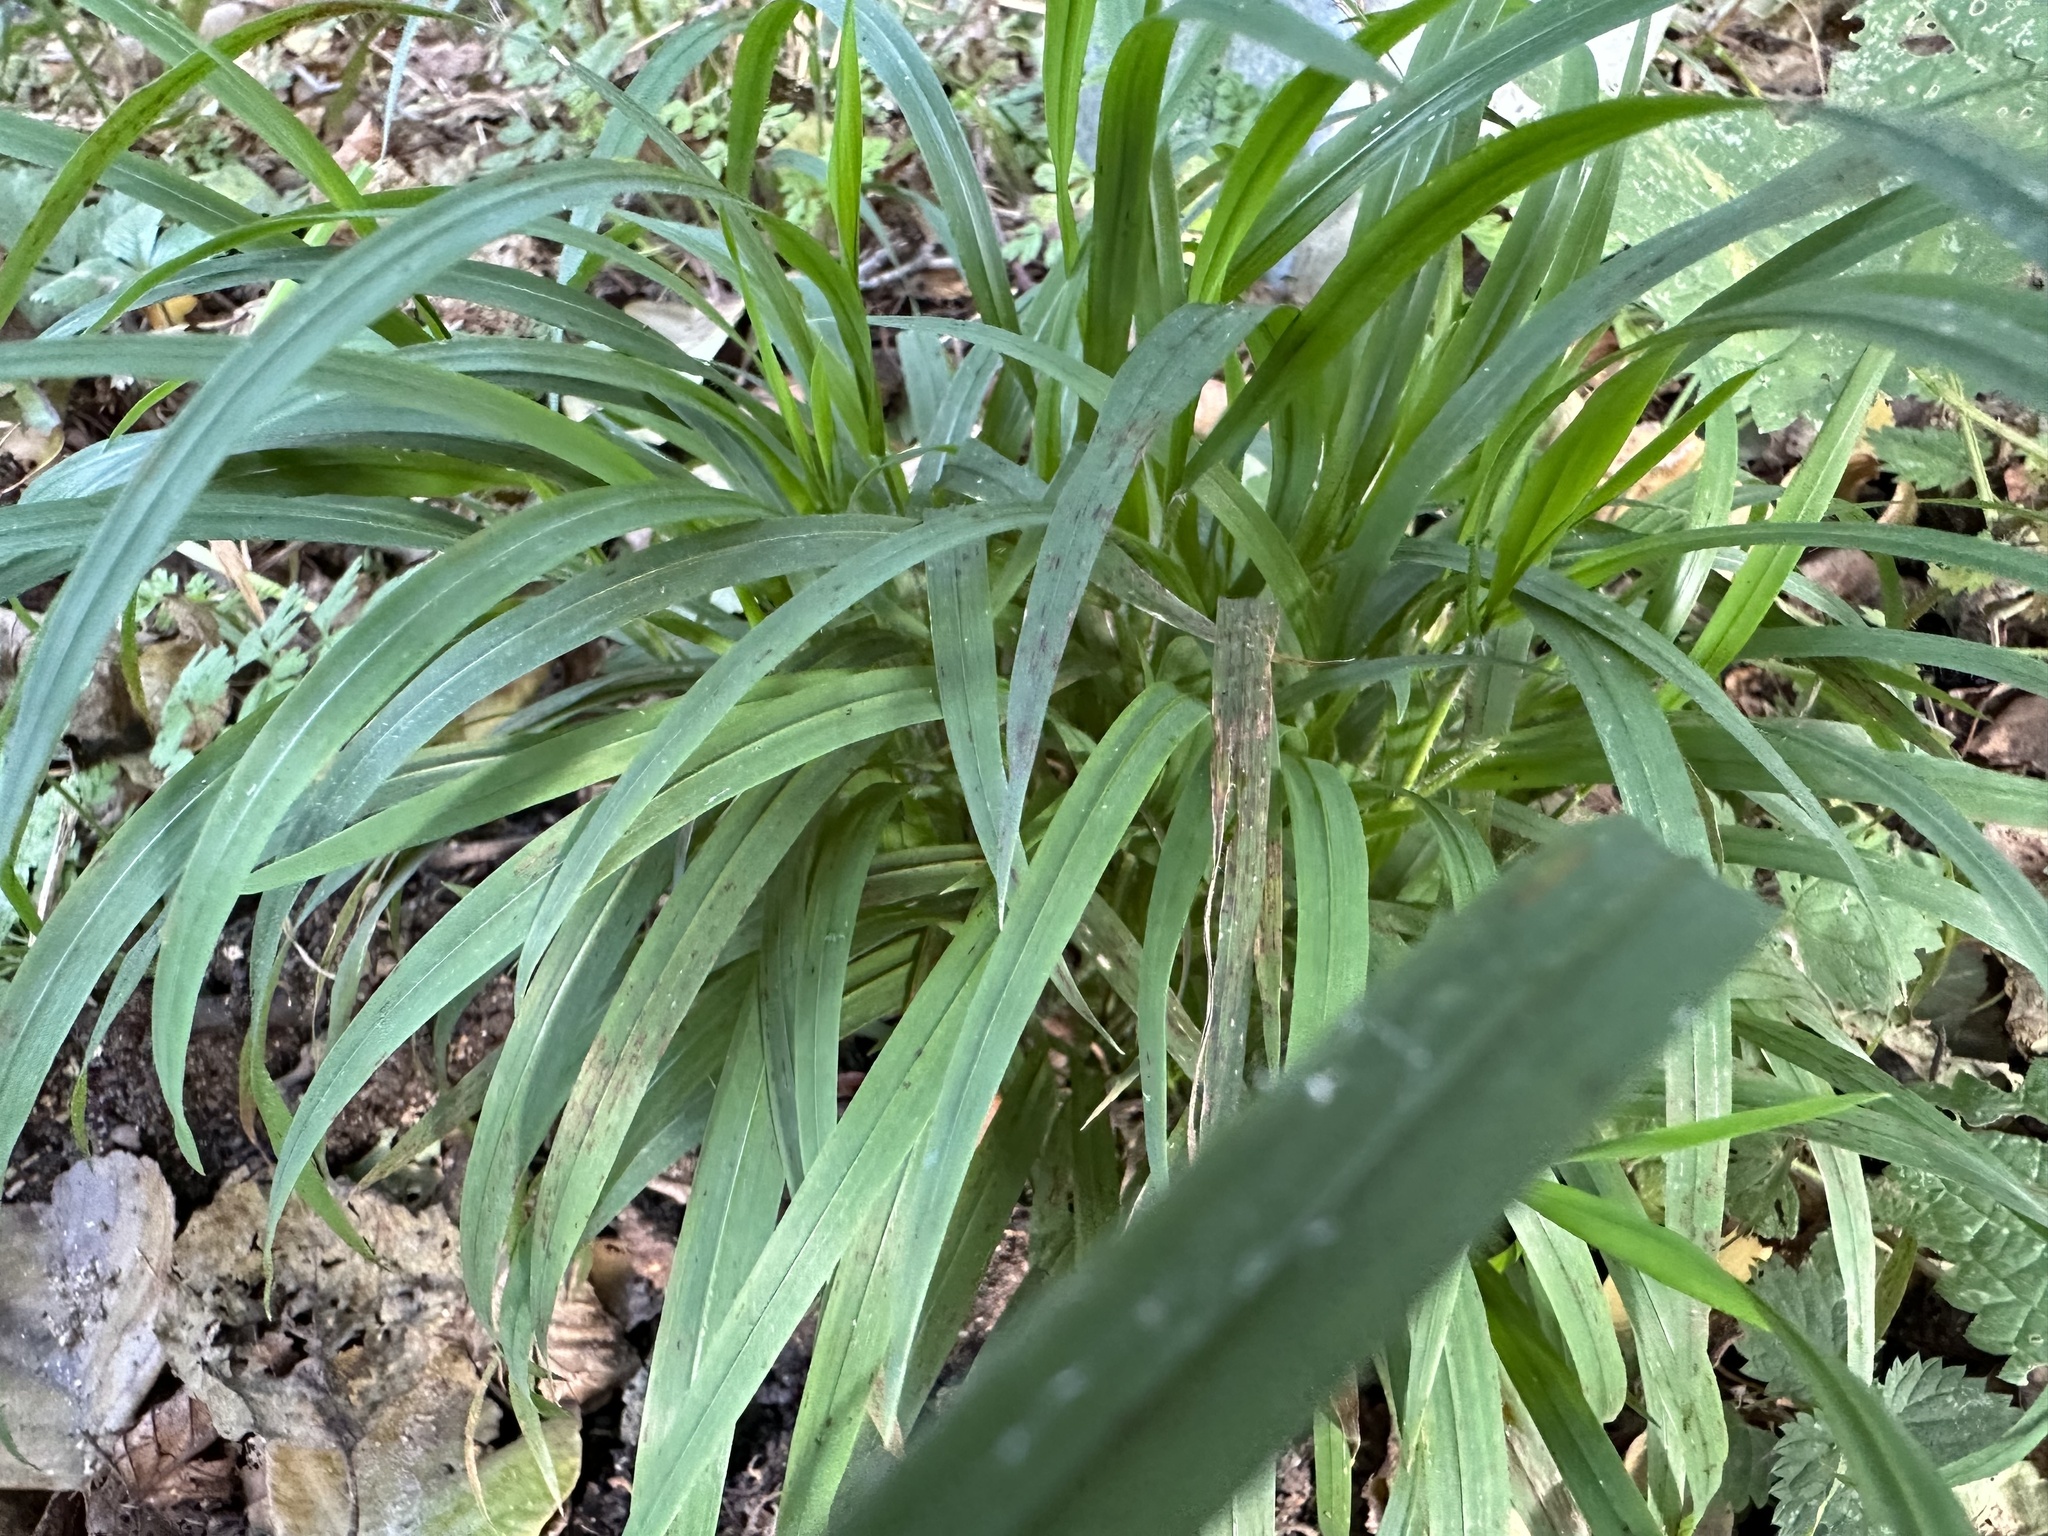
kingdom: Plantae
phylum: Tracheophyta
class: Liliopsida
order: Poales
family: Poaceae
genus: Brachypodium
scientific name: Brachypodium sylvaticum
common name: False-brome
